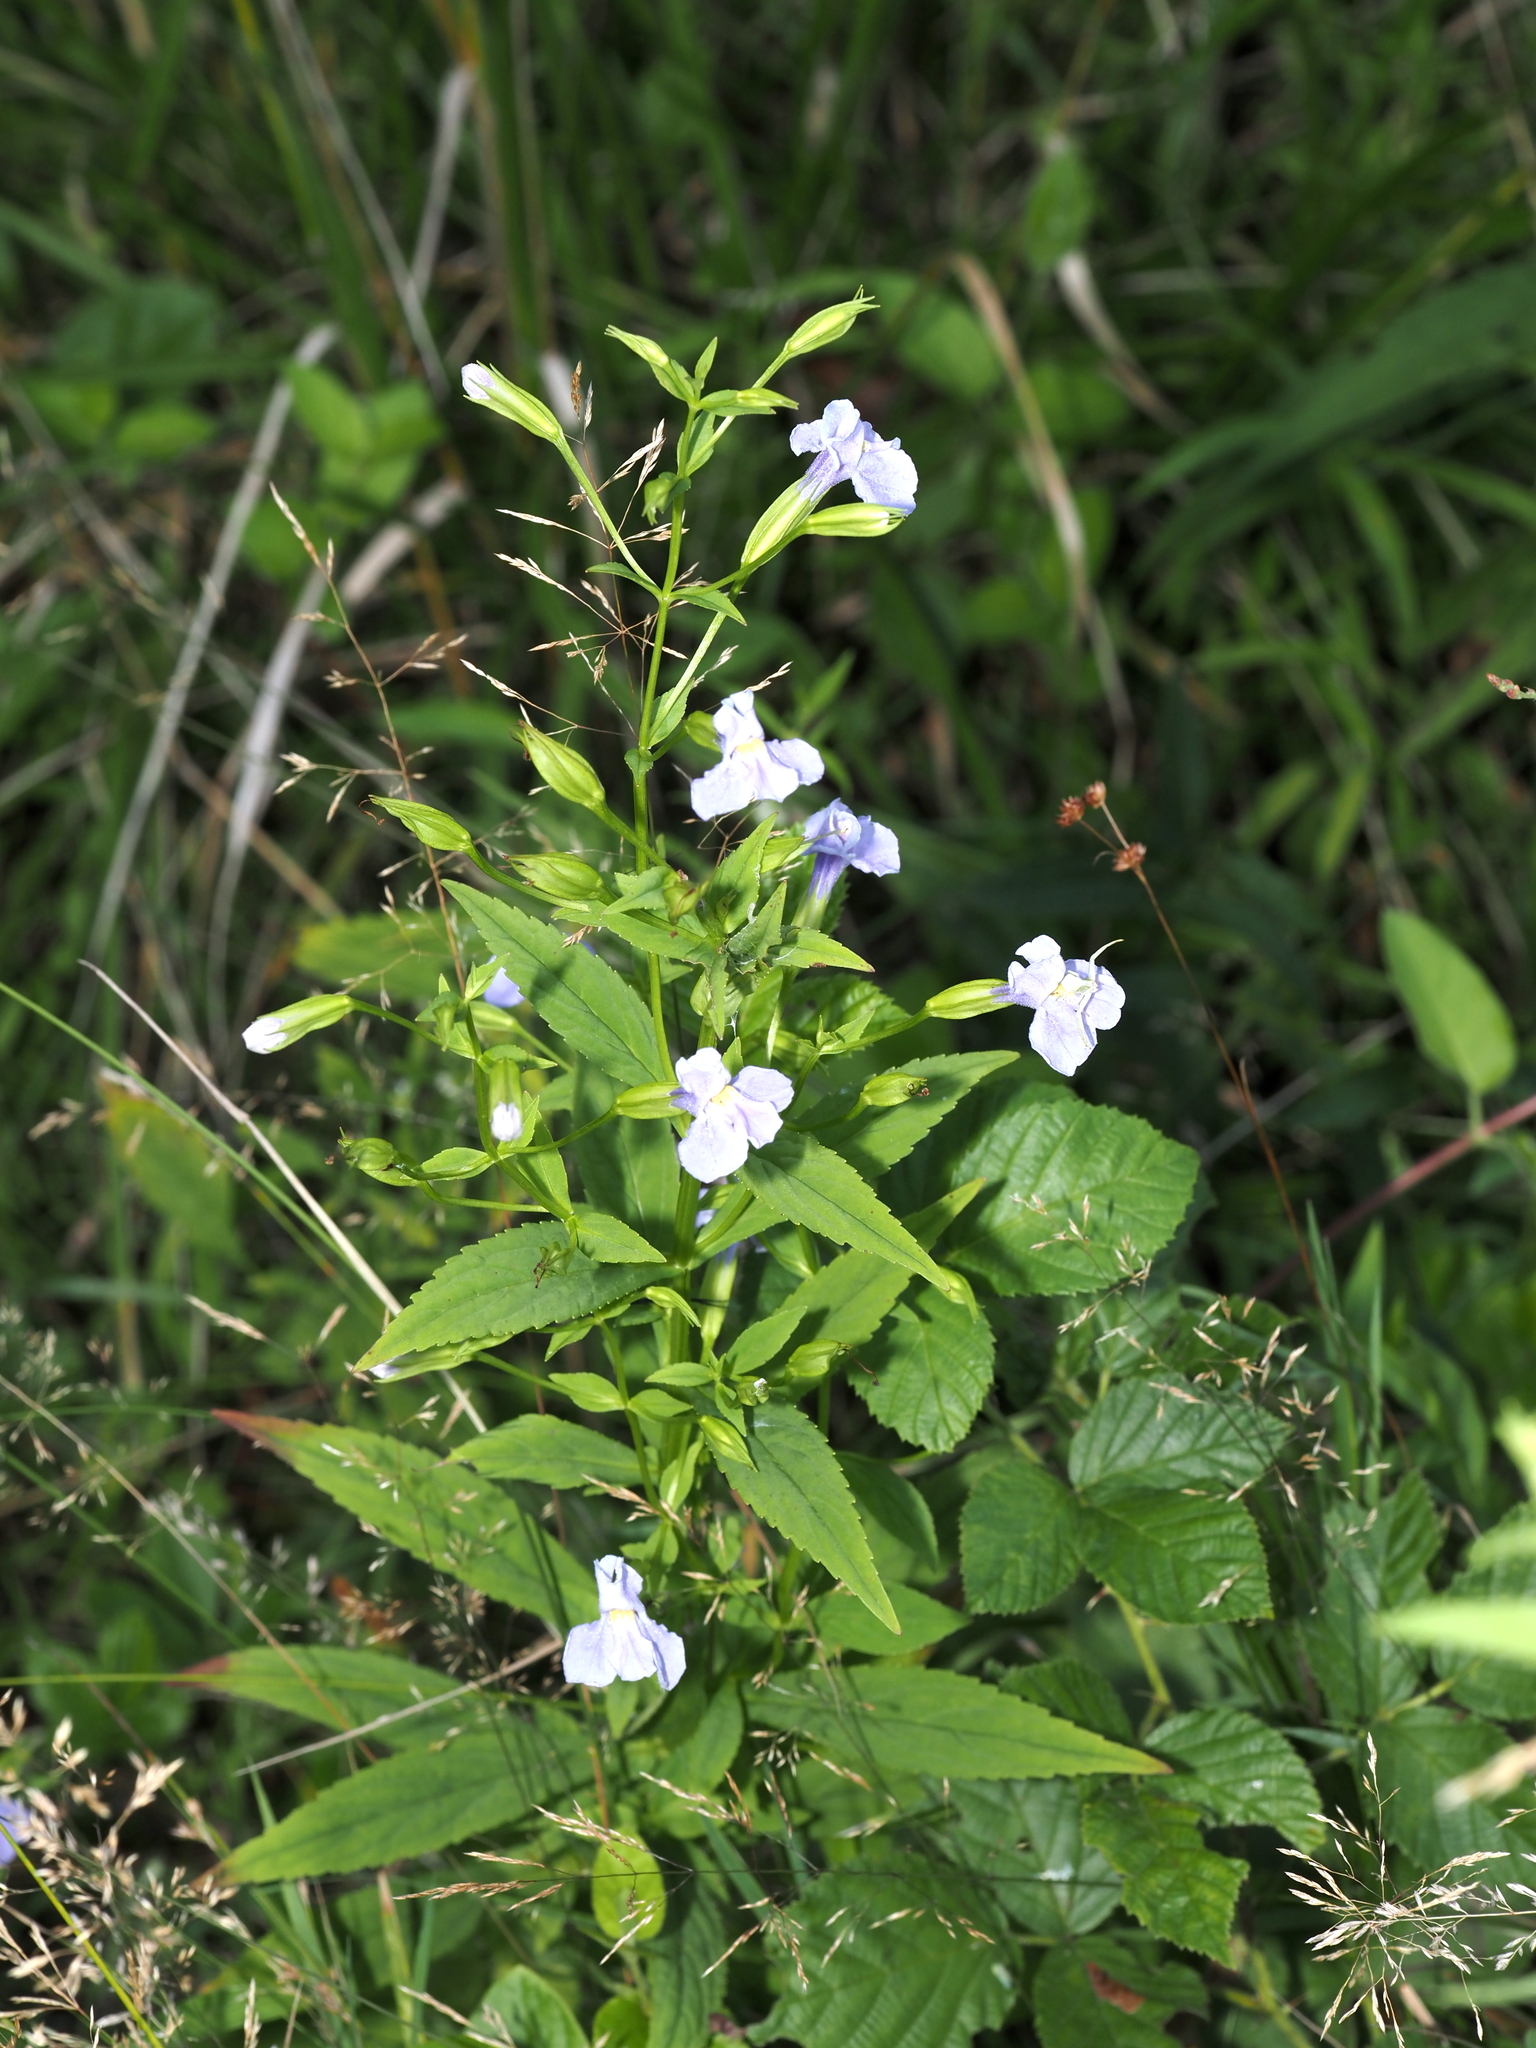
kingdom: Plantae
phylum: Tracheophyta
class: Magnoliopsida
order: Lamiales
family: Phrymaceae
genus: Mimulus
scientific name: Mimulus ringens
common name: Allegheny monkeyflower
